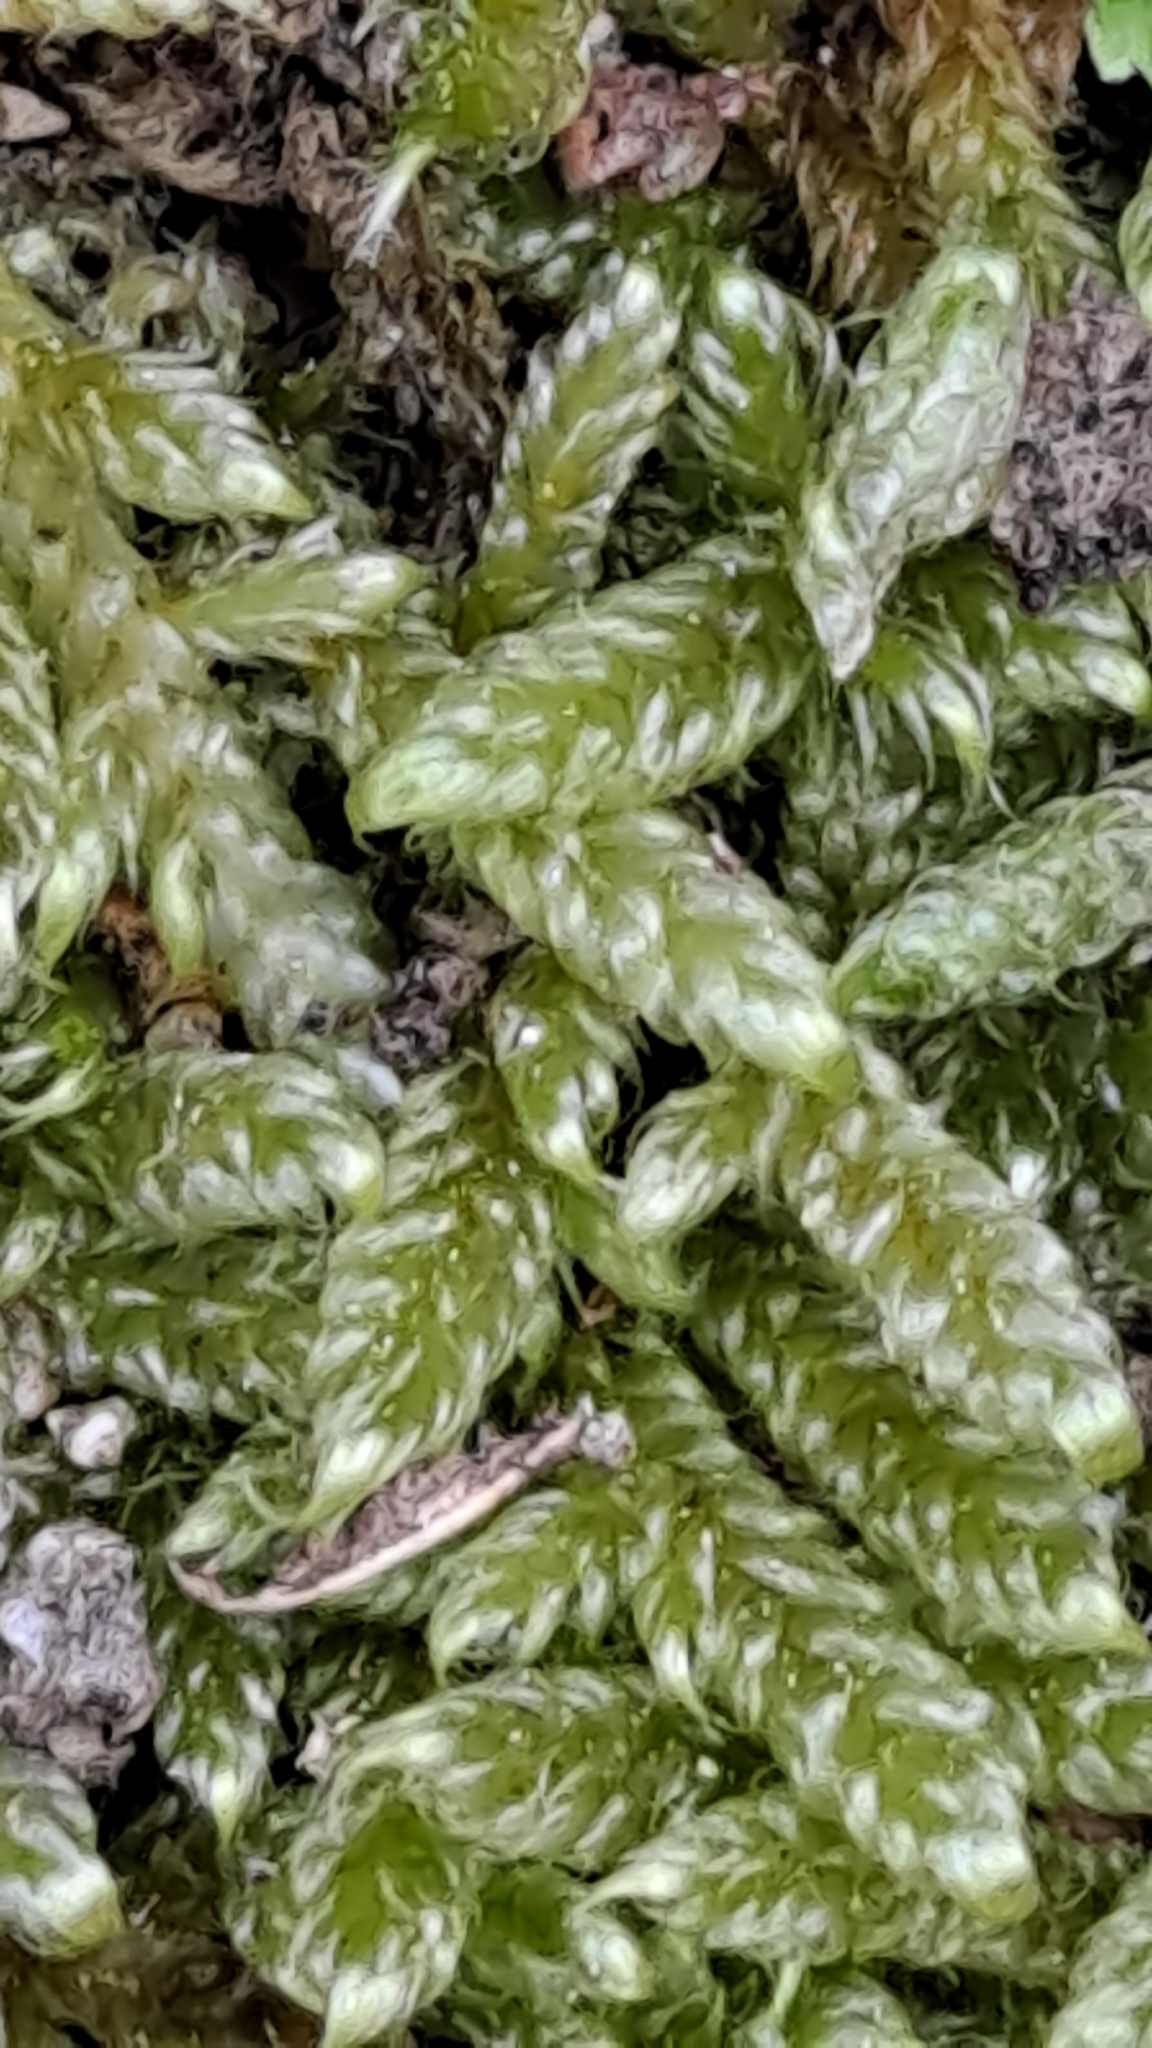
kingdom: Plantae
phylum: Bryophyta
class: Bryopsida
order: Hypnales
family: Hypnaceae
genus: Hypnum
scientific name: Hypnum cupressiforme
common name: Cypress-leaved plait-moss
